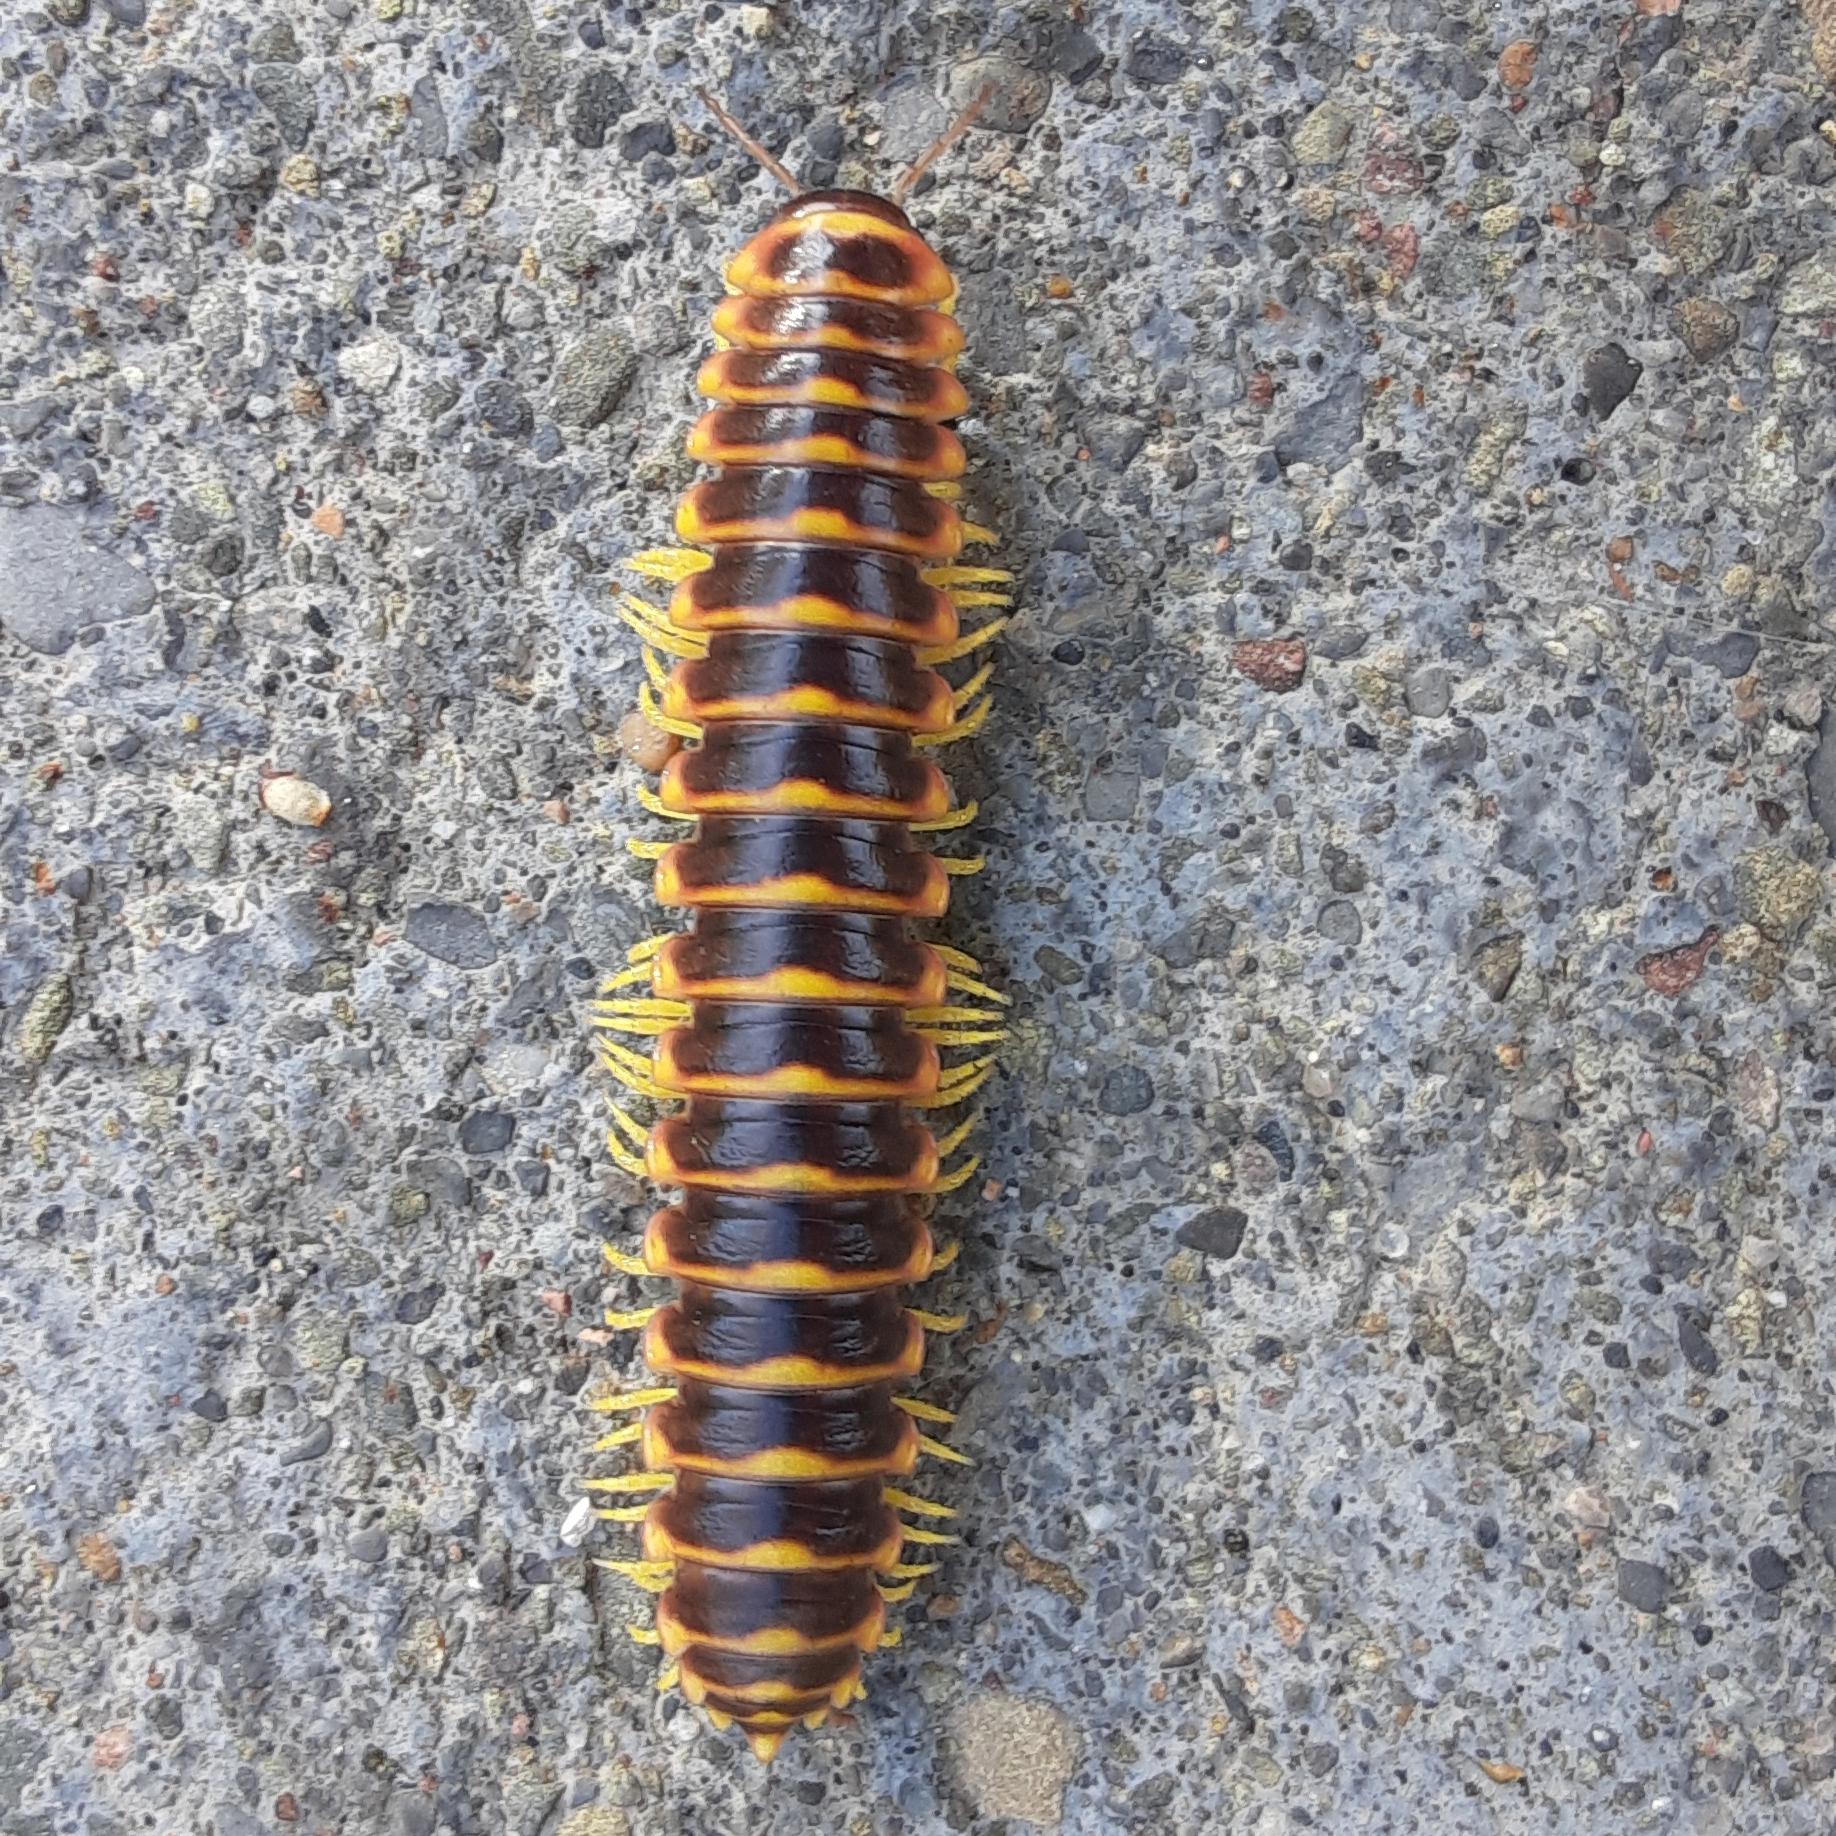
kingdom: Animalia
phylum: Arthropoda
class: Diplopoda
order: Polydesmida
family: Xystodesmidae
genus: Apheloria
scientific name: Apheloria virginiensis
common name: Black-and-gold flat millipede
